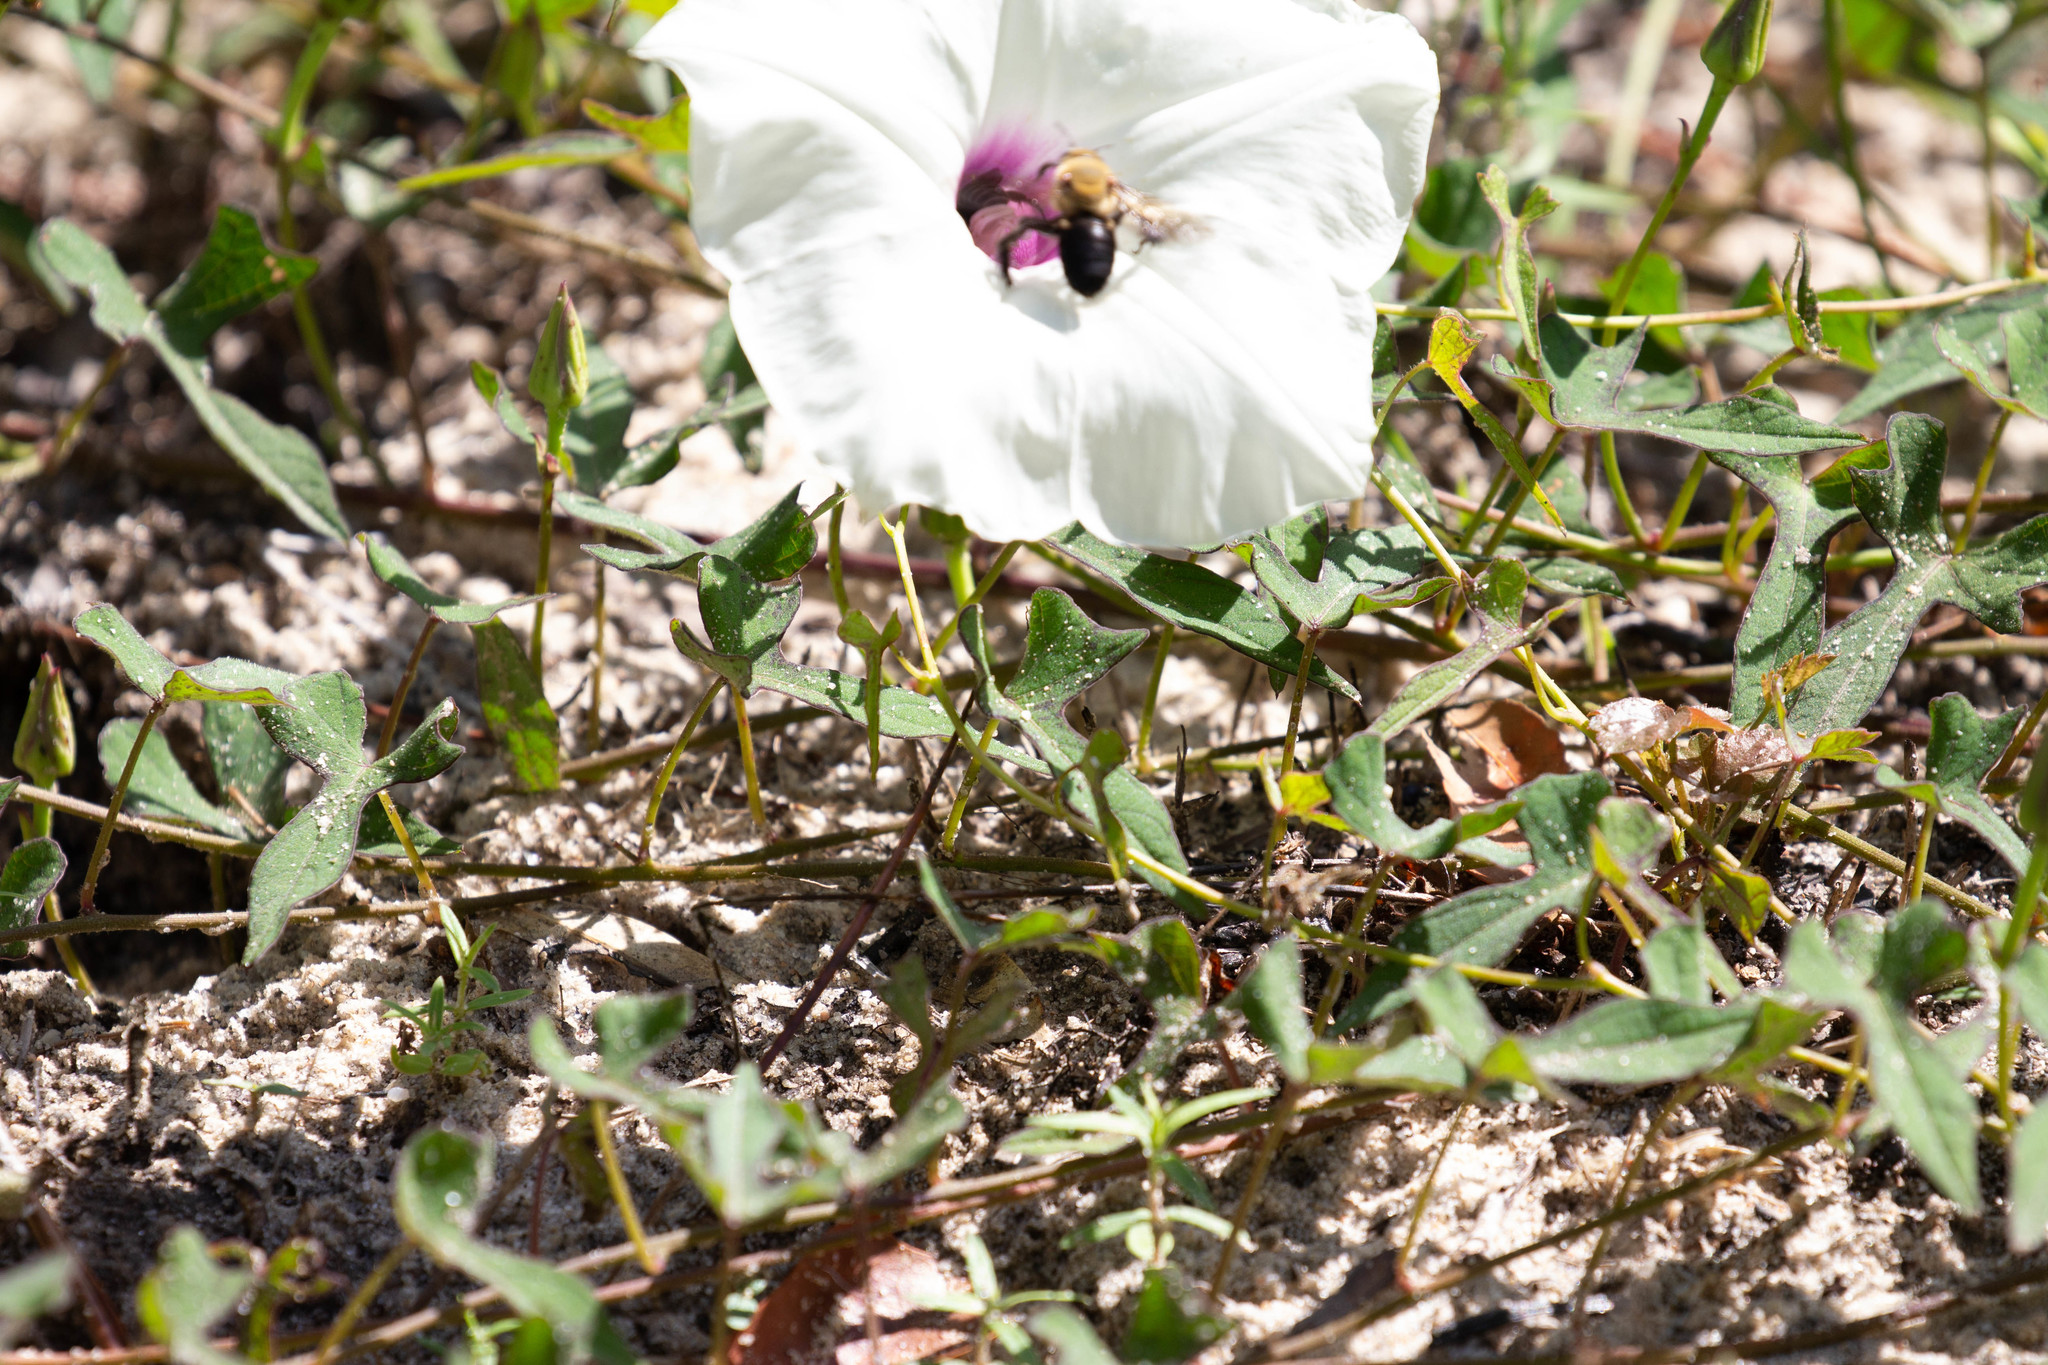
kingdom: Plantae
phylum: Tracheophyta
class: Magnoliopsida
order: Solanales
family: Convolvulaceae
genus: Ipomoea
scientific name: Ipomoea pandurata
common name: Man-of-the-earth
